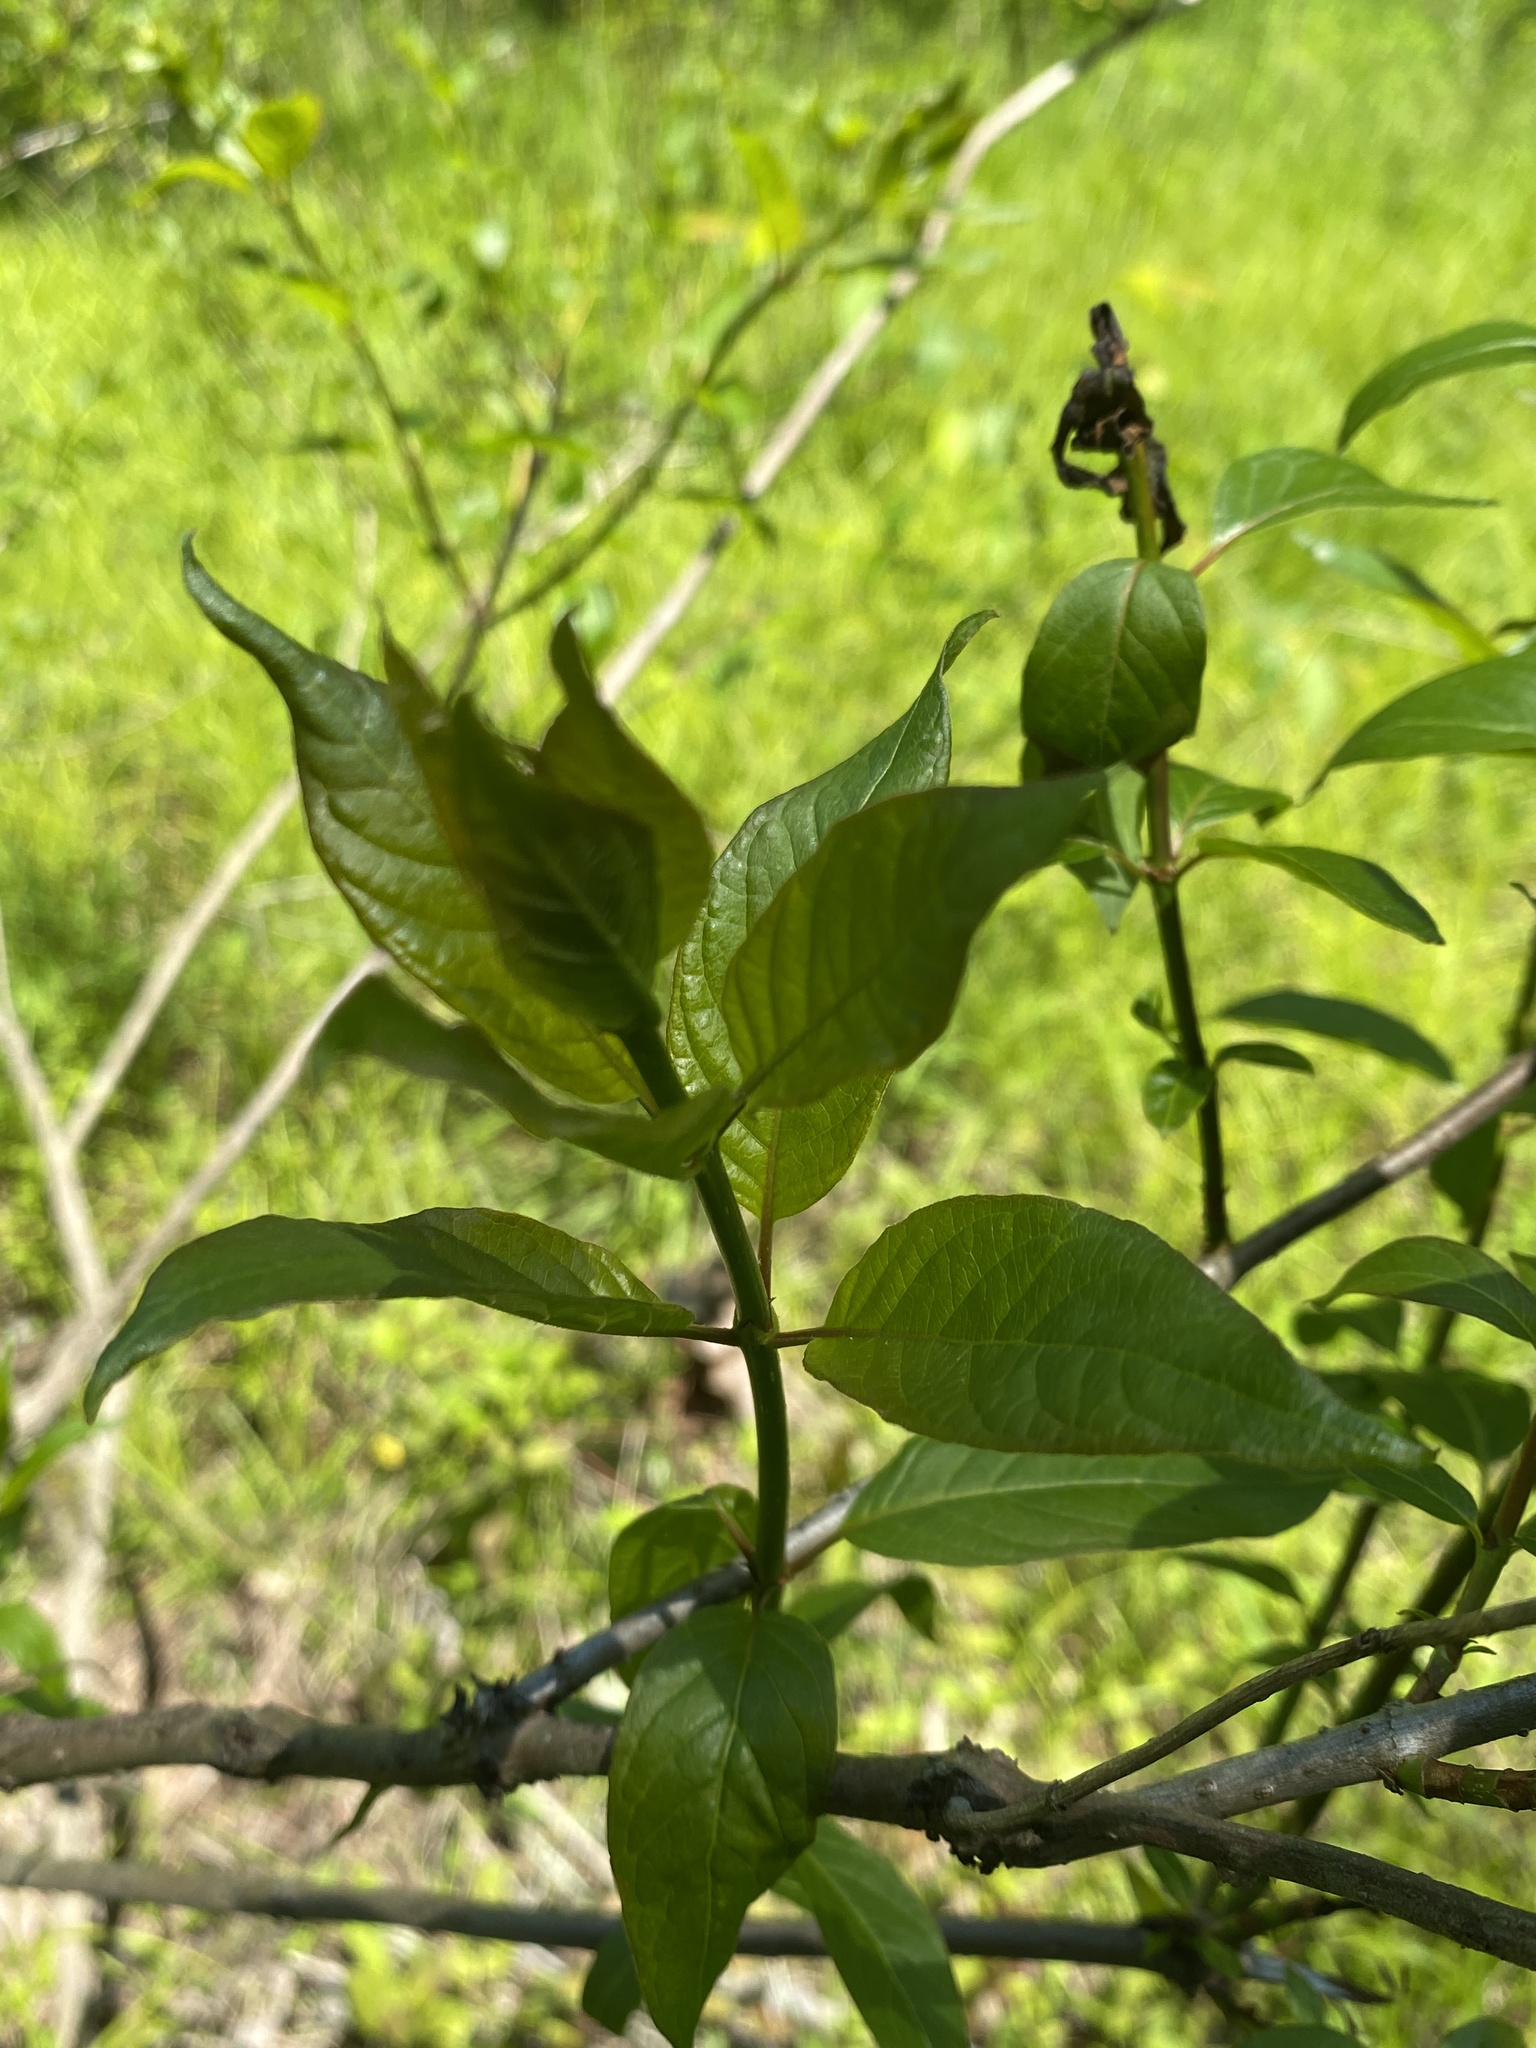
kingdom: Plantae
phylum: Tracheophyta
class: Magnoliopsida
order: Gentianales
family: Rubiaceae
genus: Cephalanthus
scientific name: Cephalanthus occidentalis
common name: Button-willow
